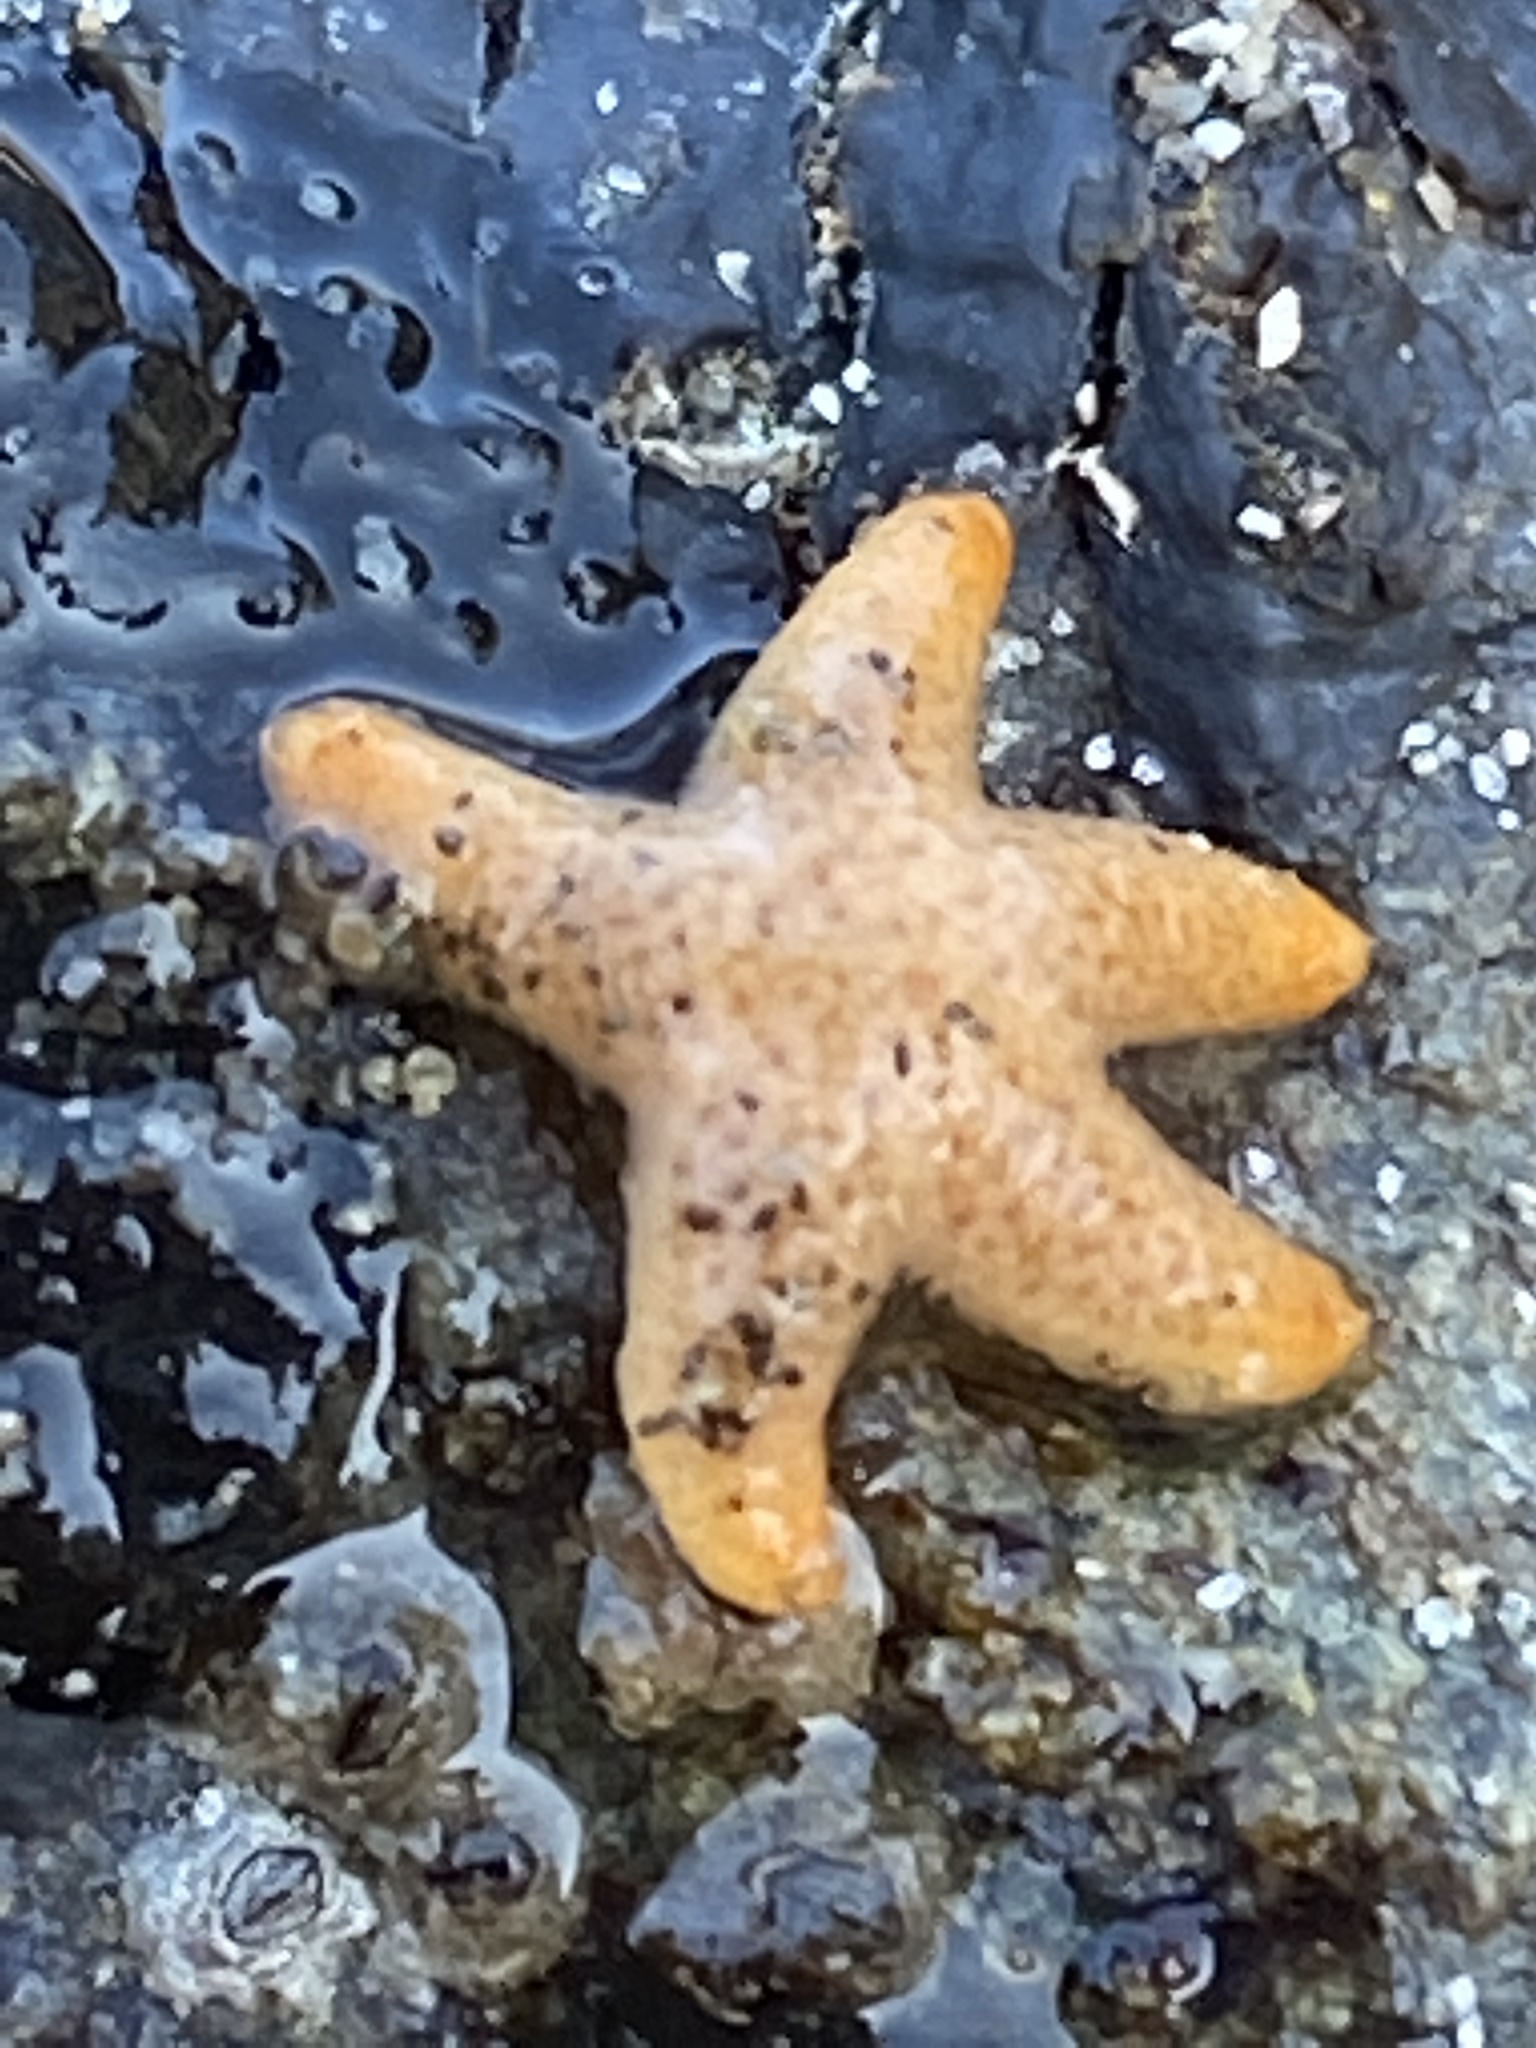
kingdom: Animalia
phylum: Echinodermata
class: Asteroidea
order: Spinulosida
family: Echinasteridae
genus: Henricia
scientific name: Henricia pumila
